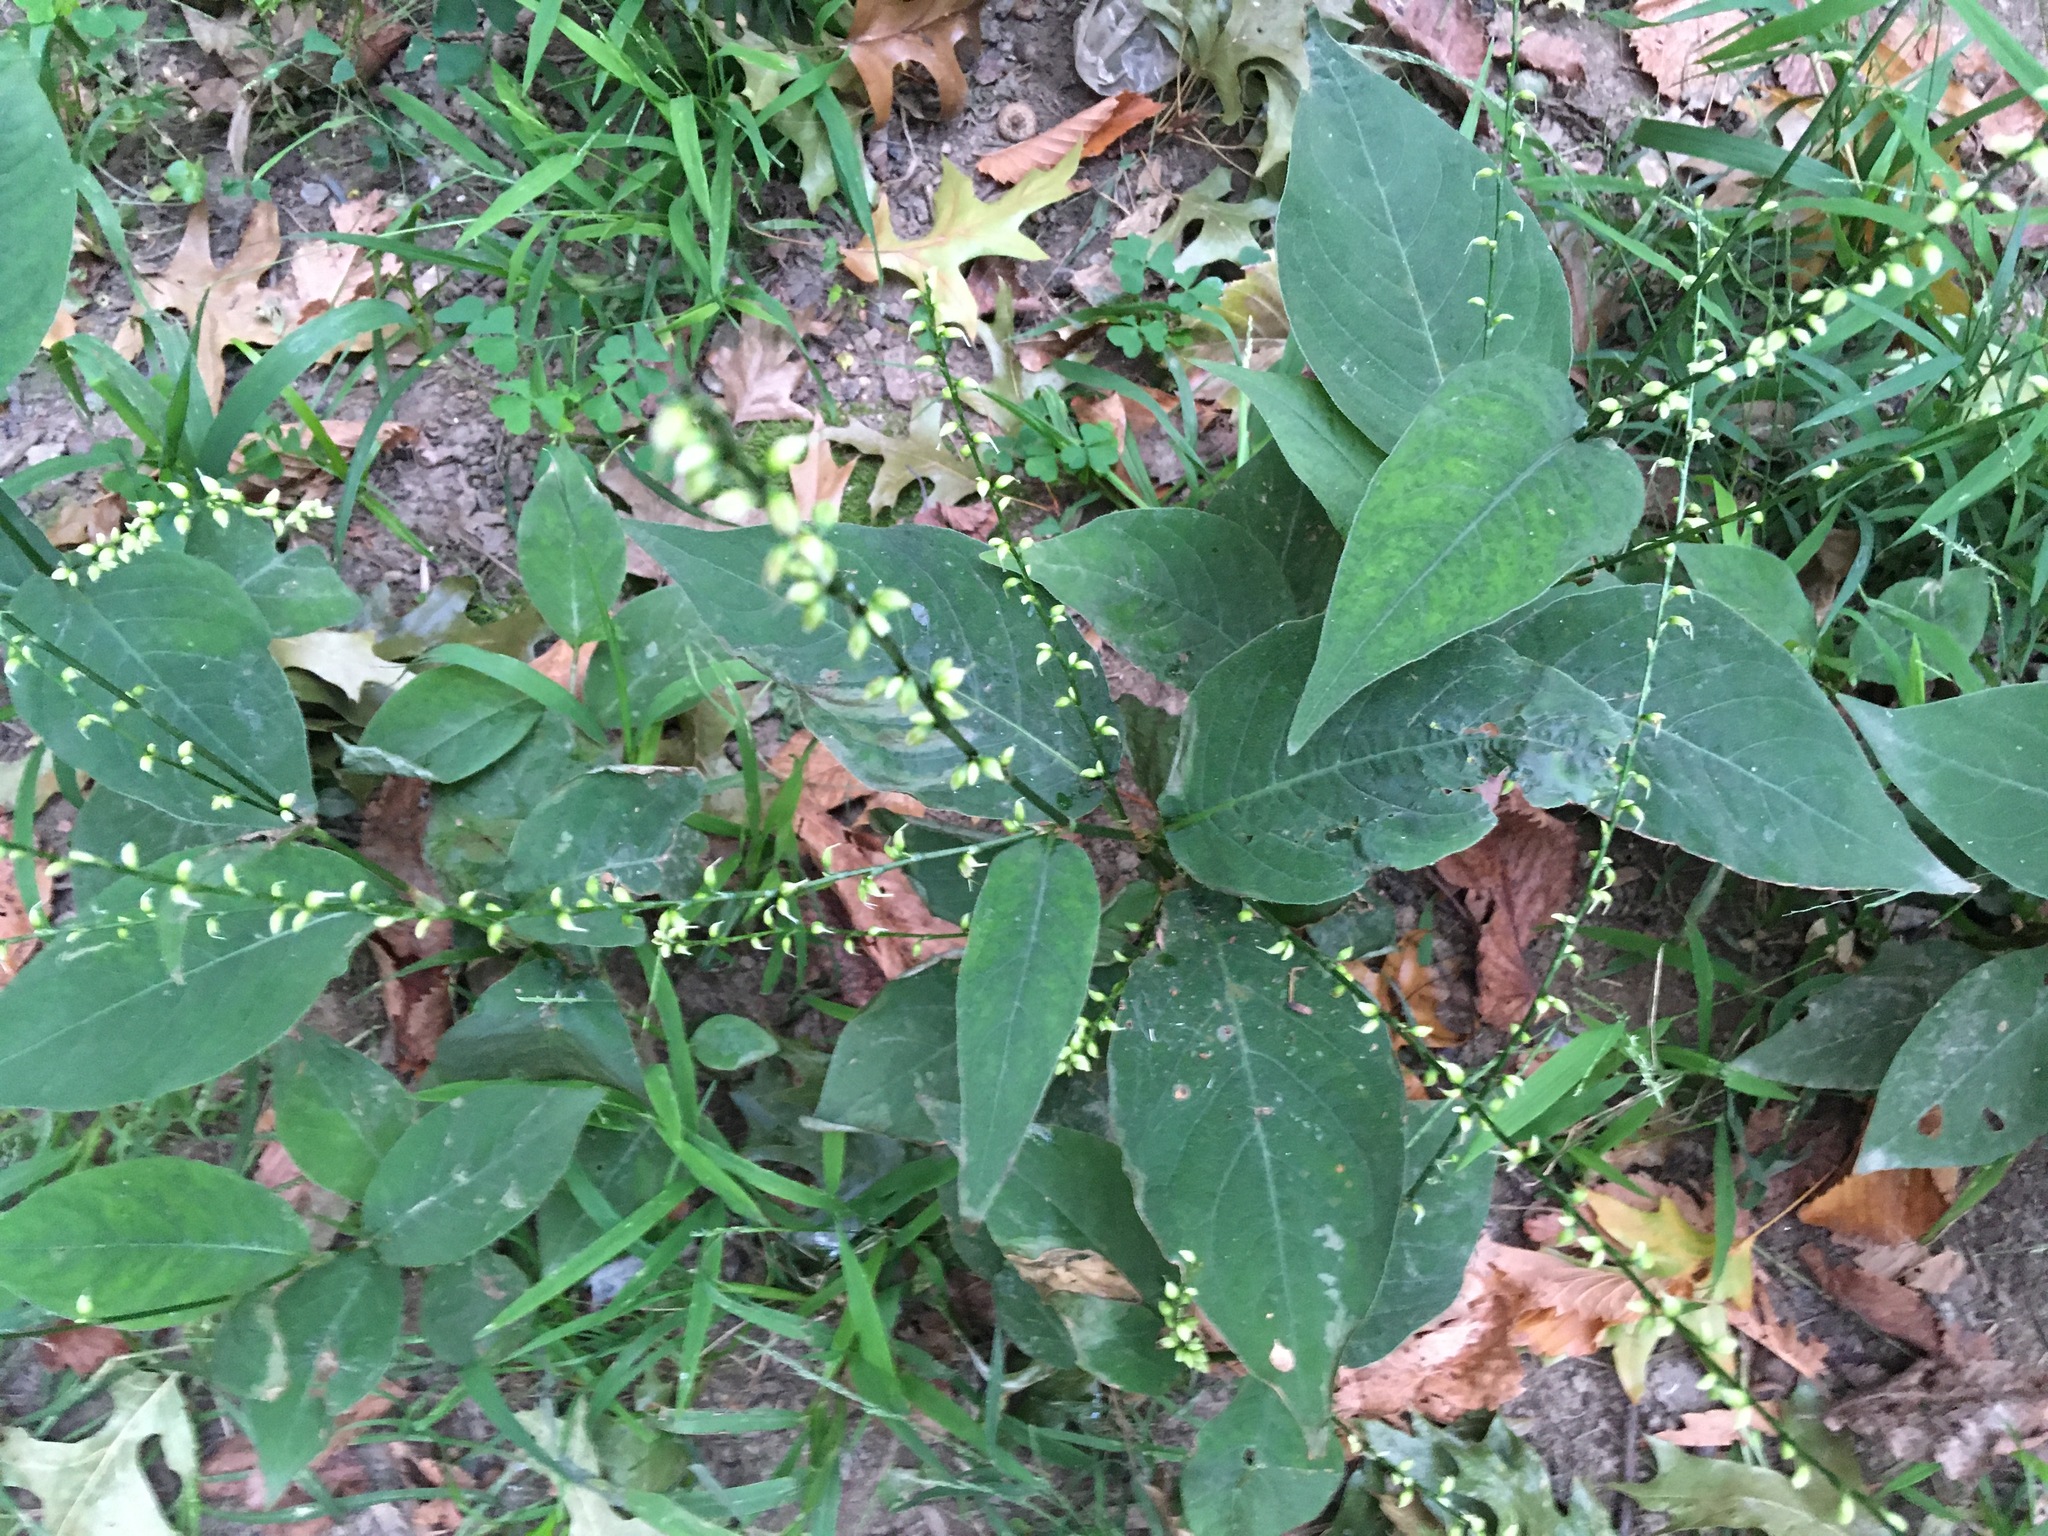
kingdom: Plantae
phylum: Tracheophyta
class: Magnoliopsida
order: Caryophyllales
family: Polygonaceae
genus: Persicaria
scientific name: Persicaria virginiana
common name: Jumpseed
